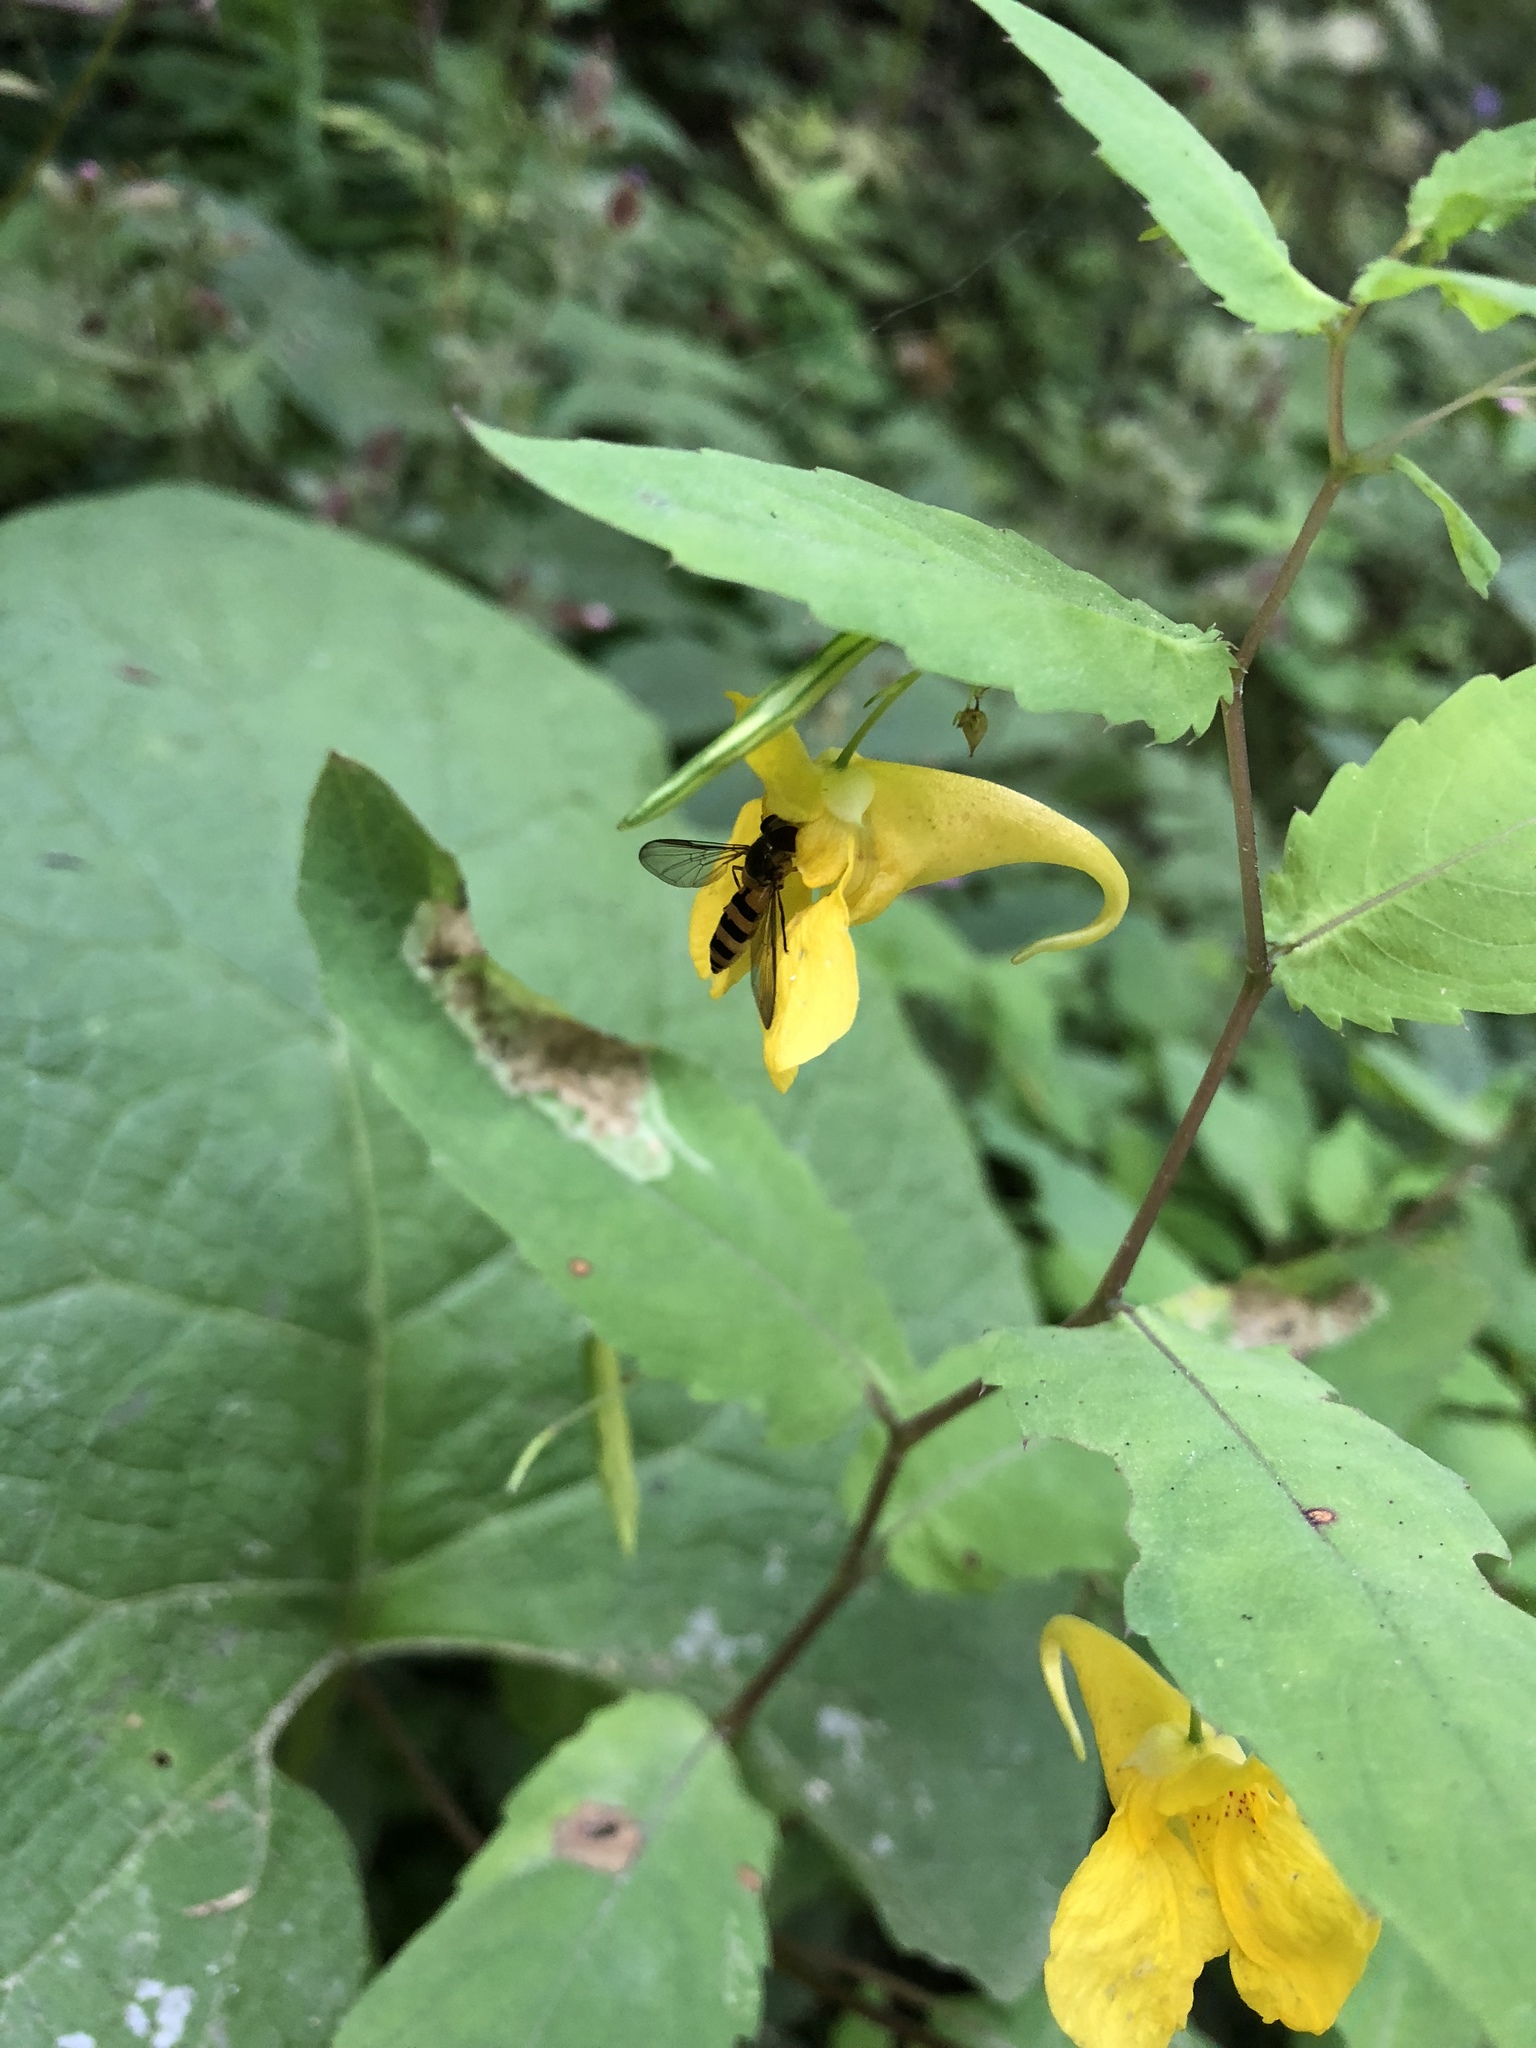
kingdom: Plantae
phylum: Tracheophyta
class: Magnoliopsida
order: Ericales
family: Balsaminaceae
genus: Impatiens
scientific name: Impatiens noli-tangere
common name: Touch-me-not balsam
